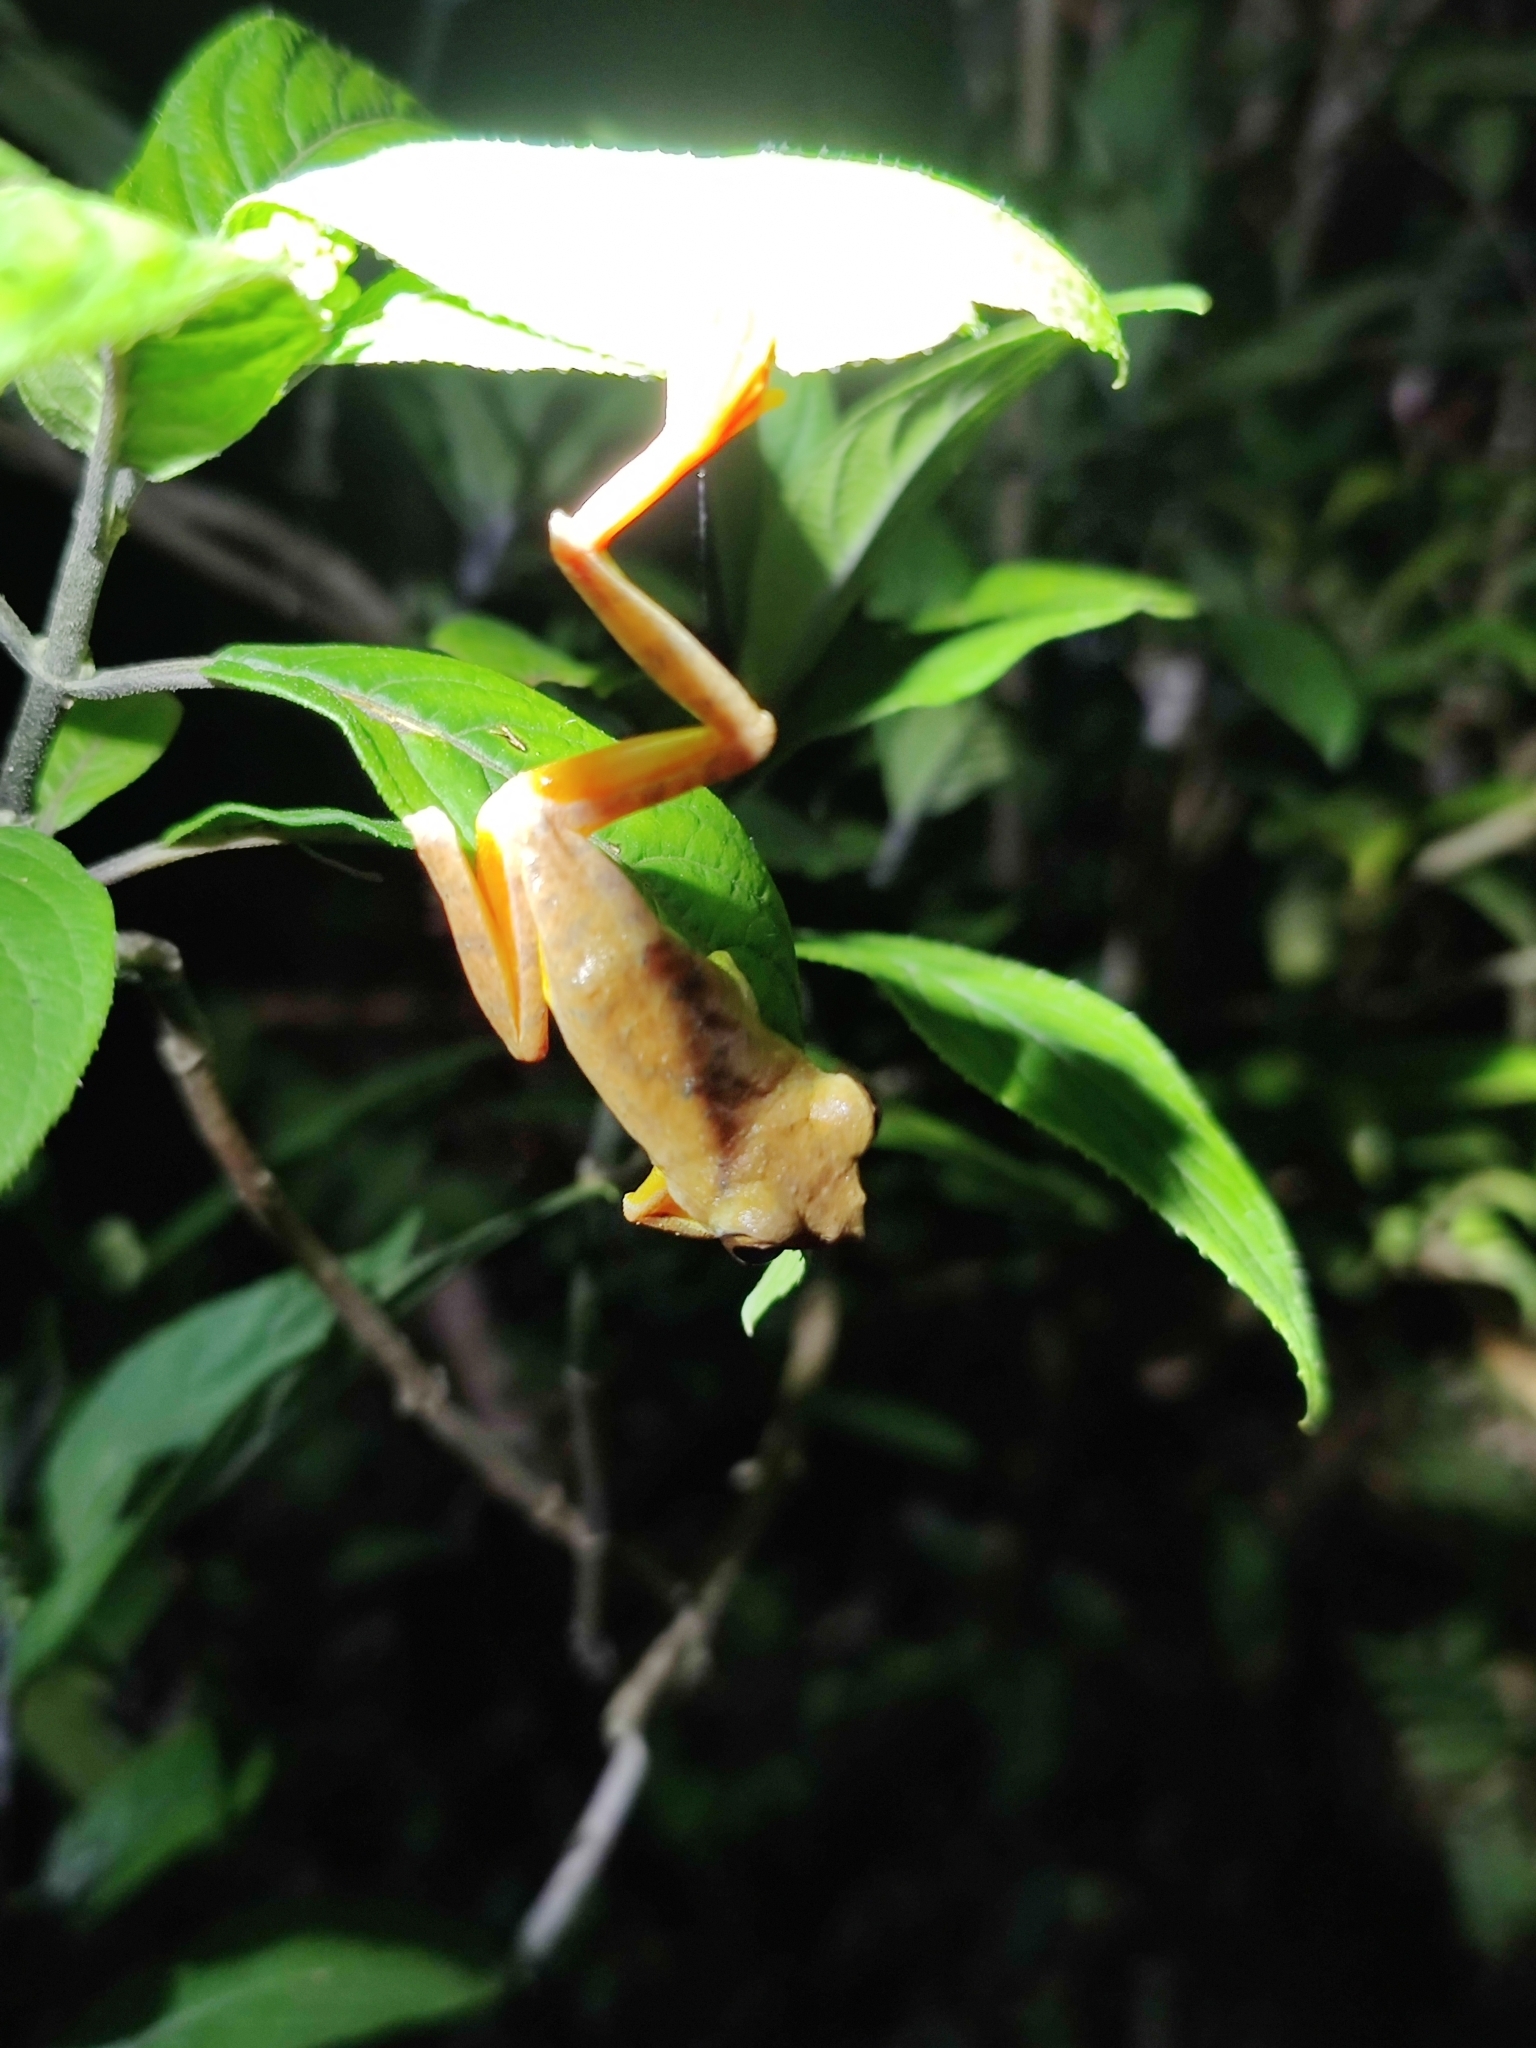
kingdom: Animalia
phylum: Chordata
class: Amphibia
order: Anura
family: Rhacophoridae
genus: Rhacophorus
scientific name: Rhacophorus subansiriensis
